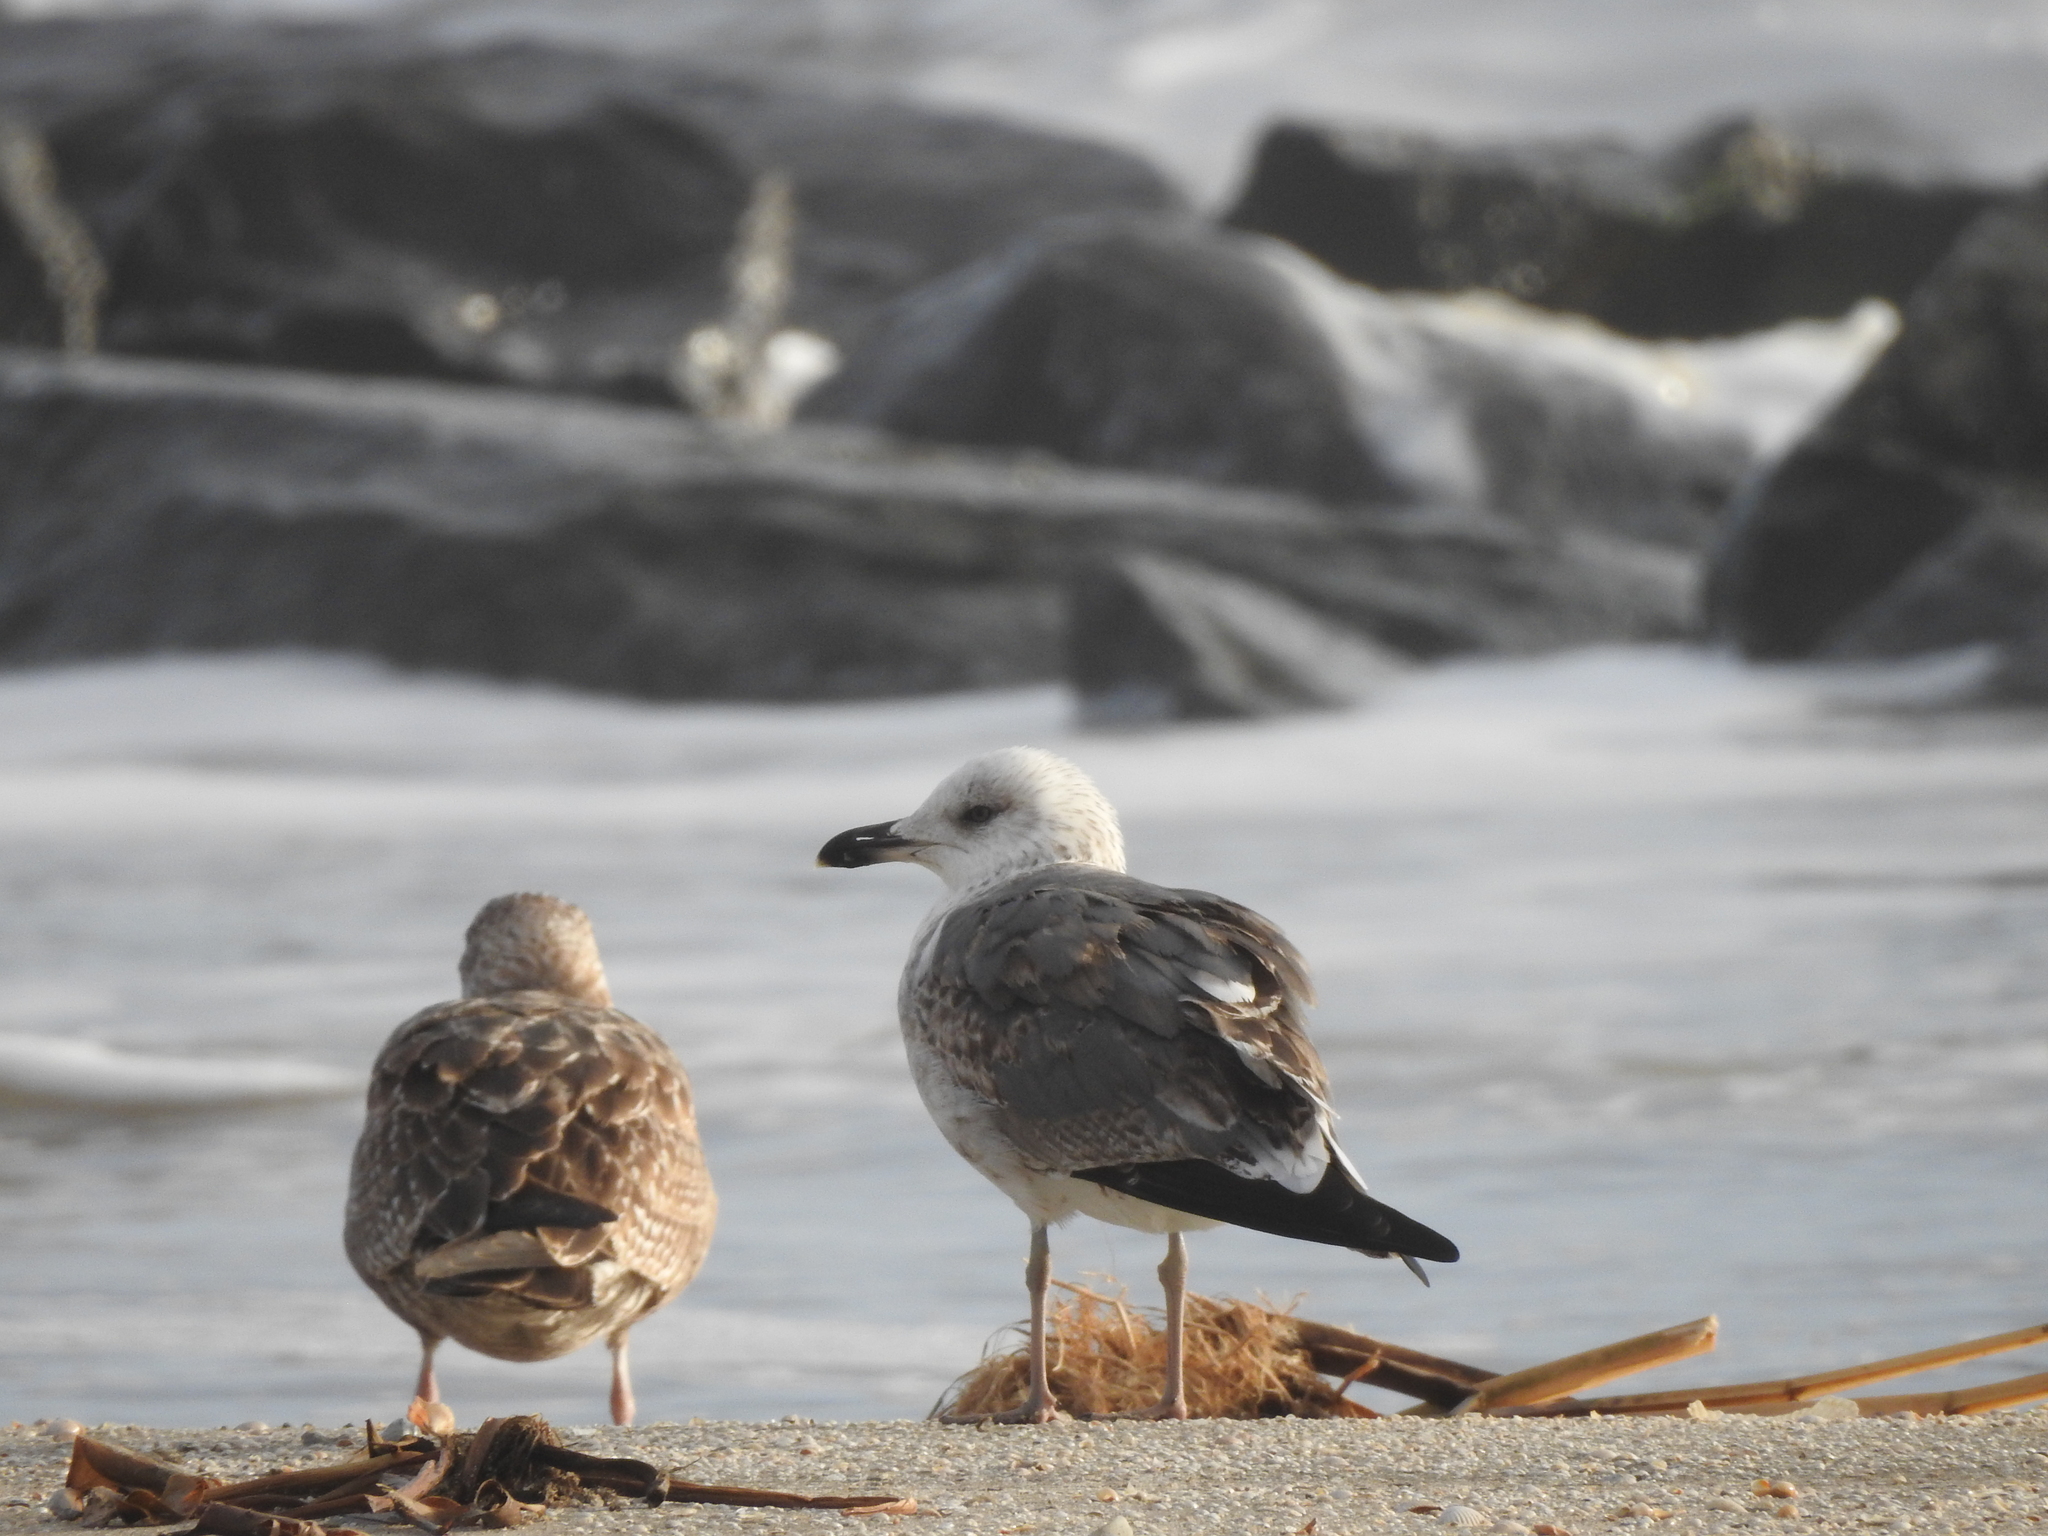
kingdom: Animalia
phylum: Chordata
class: Aves
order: Charadriiformes
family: Laridae
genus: Larus
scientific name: Larus fuscus
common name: Lesser black-backed gull
